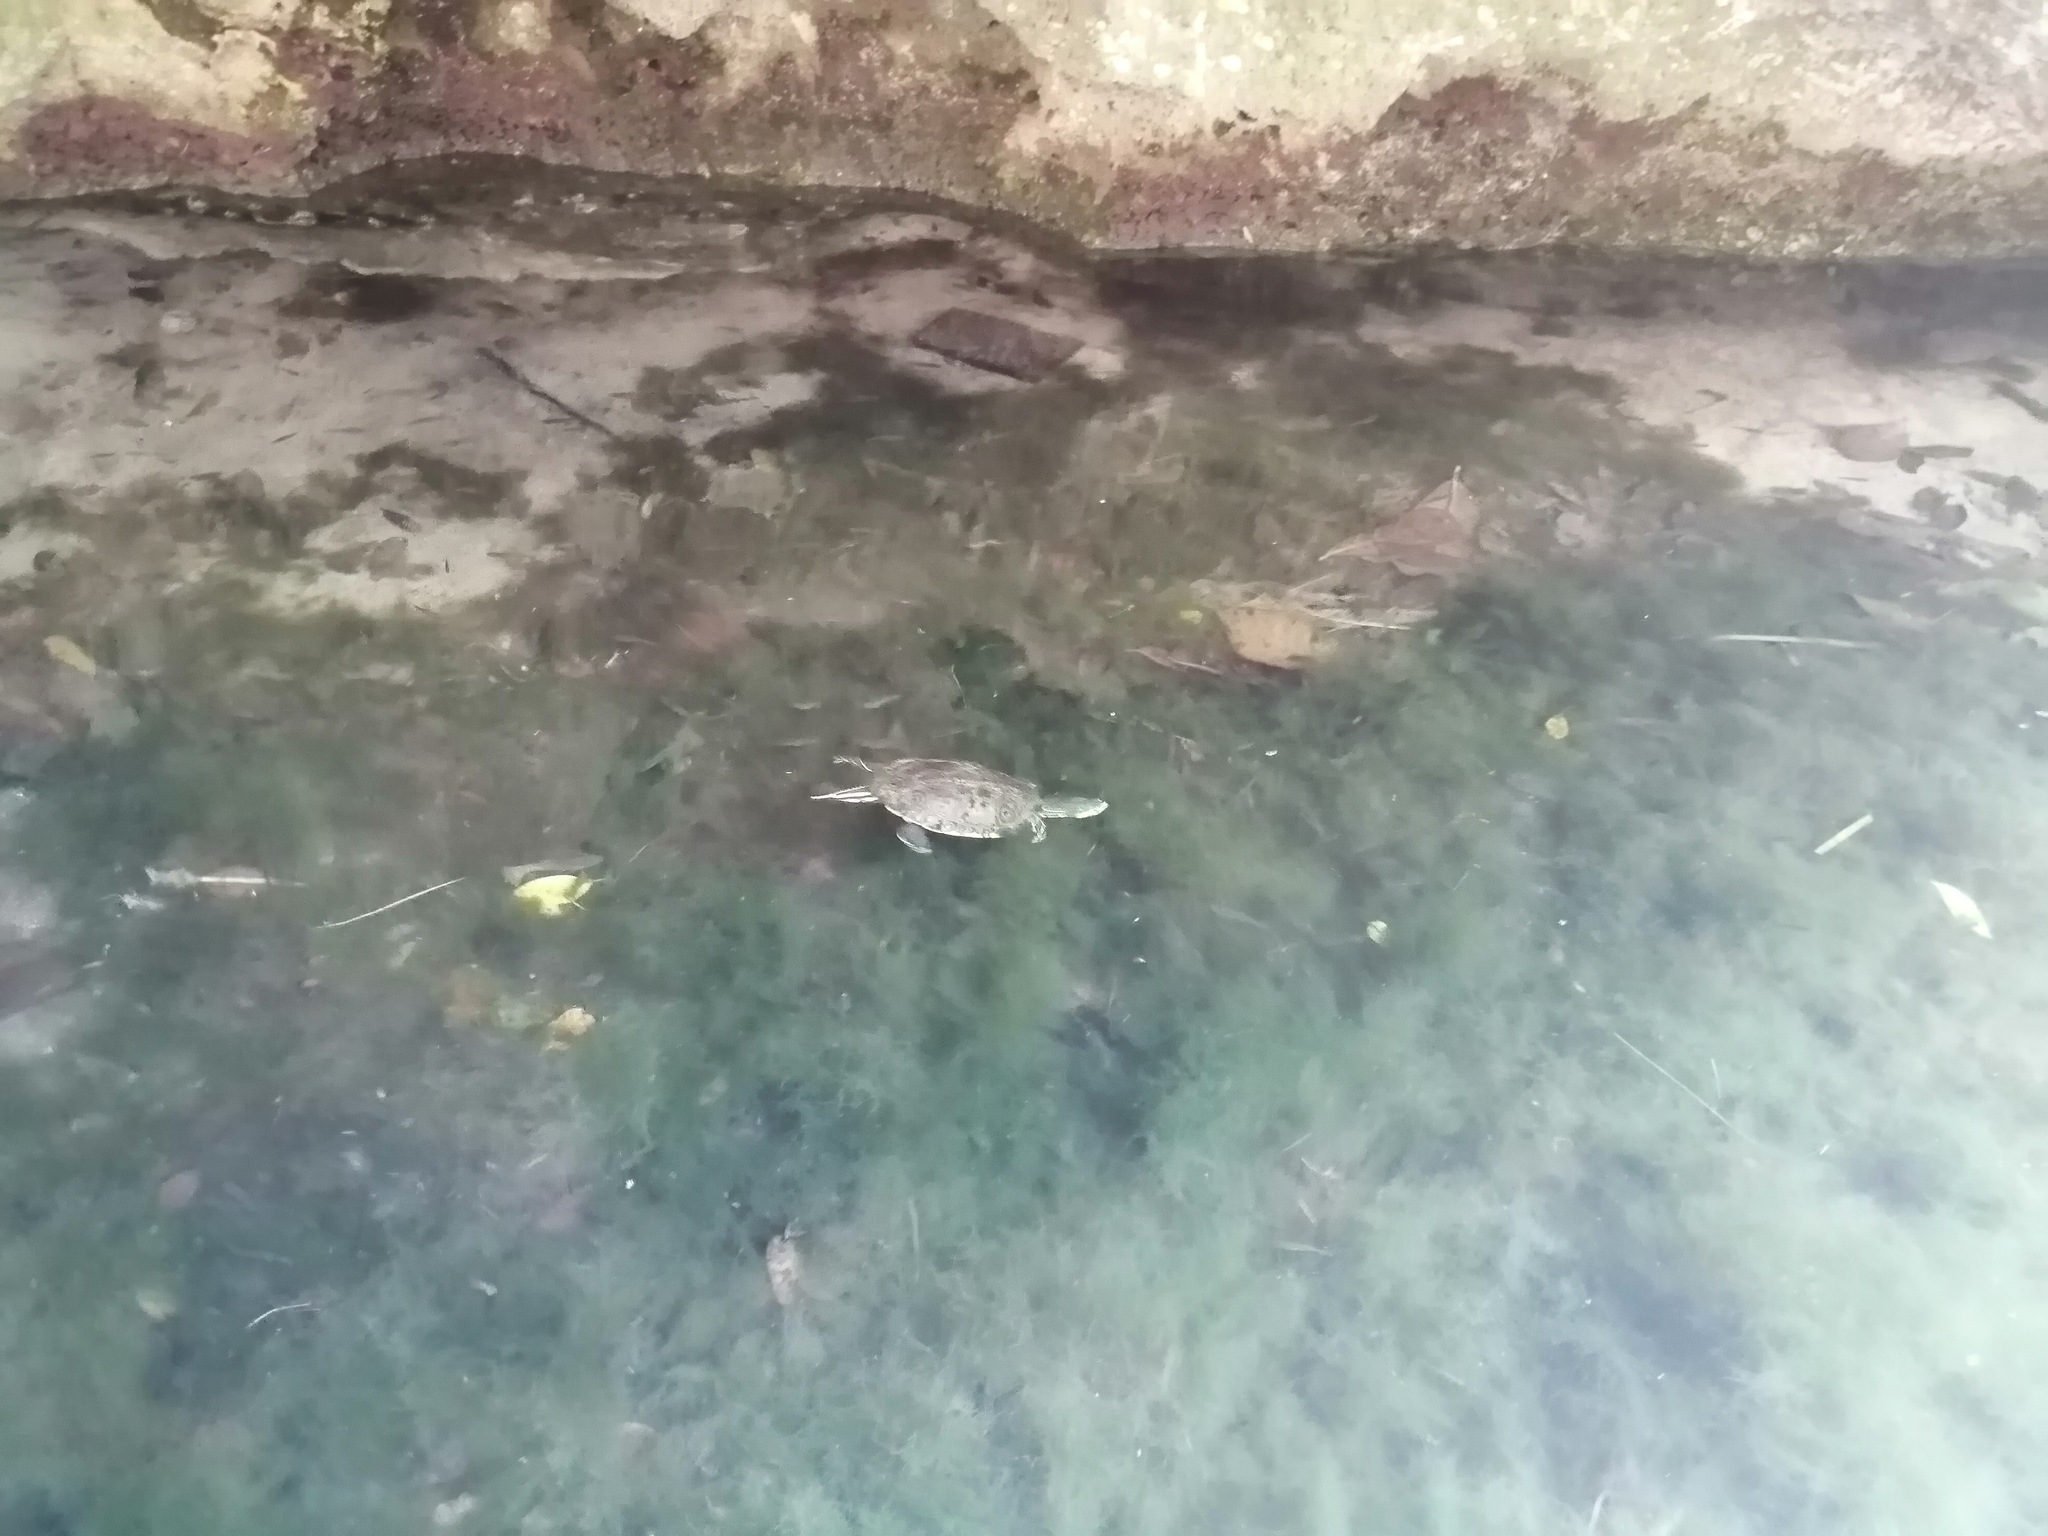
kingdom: Animalia
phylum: Chordata
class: Testudines
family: Emydidae
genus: Trachemys
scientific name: Trachemys venusta
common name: Mesoamerican slider
